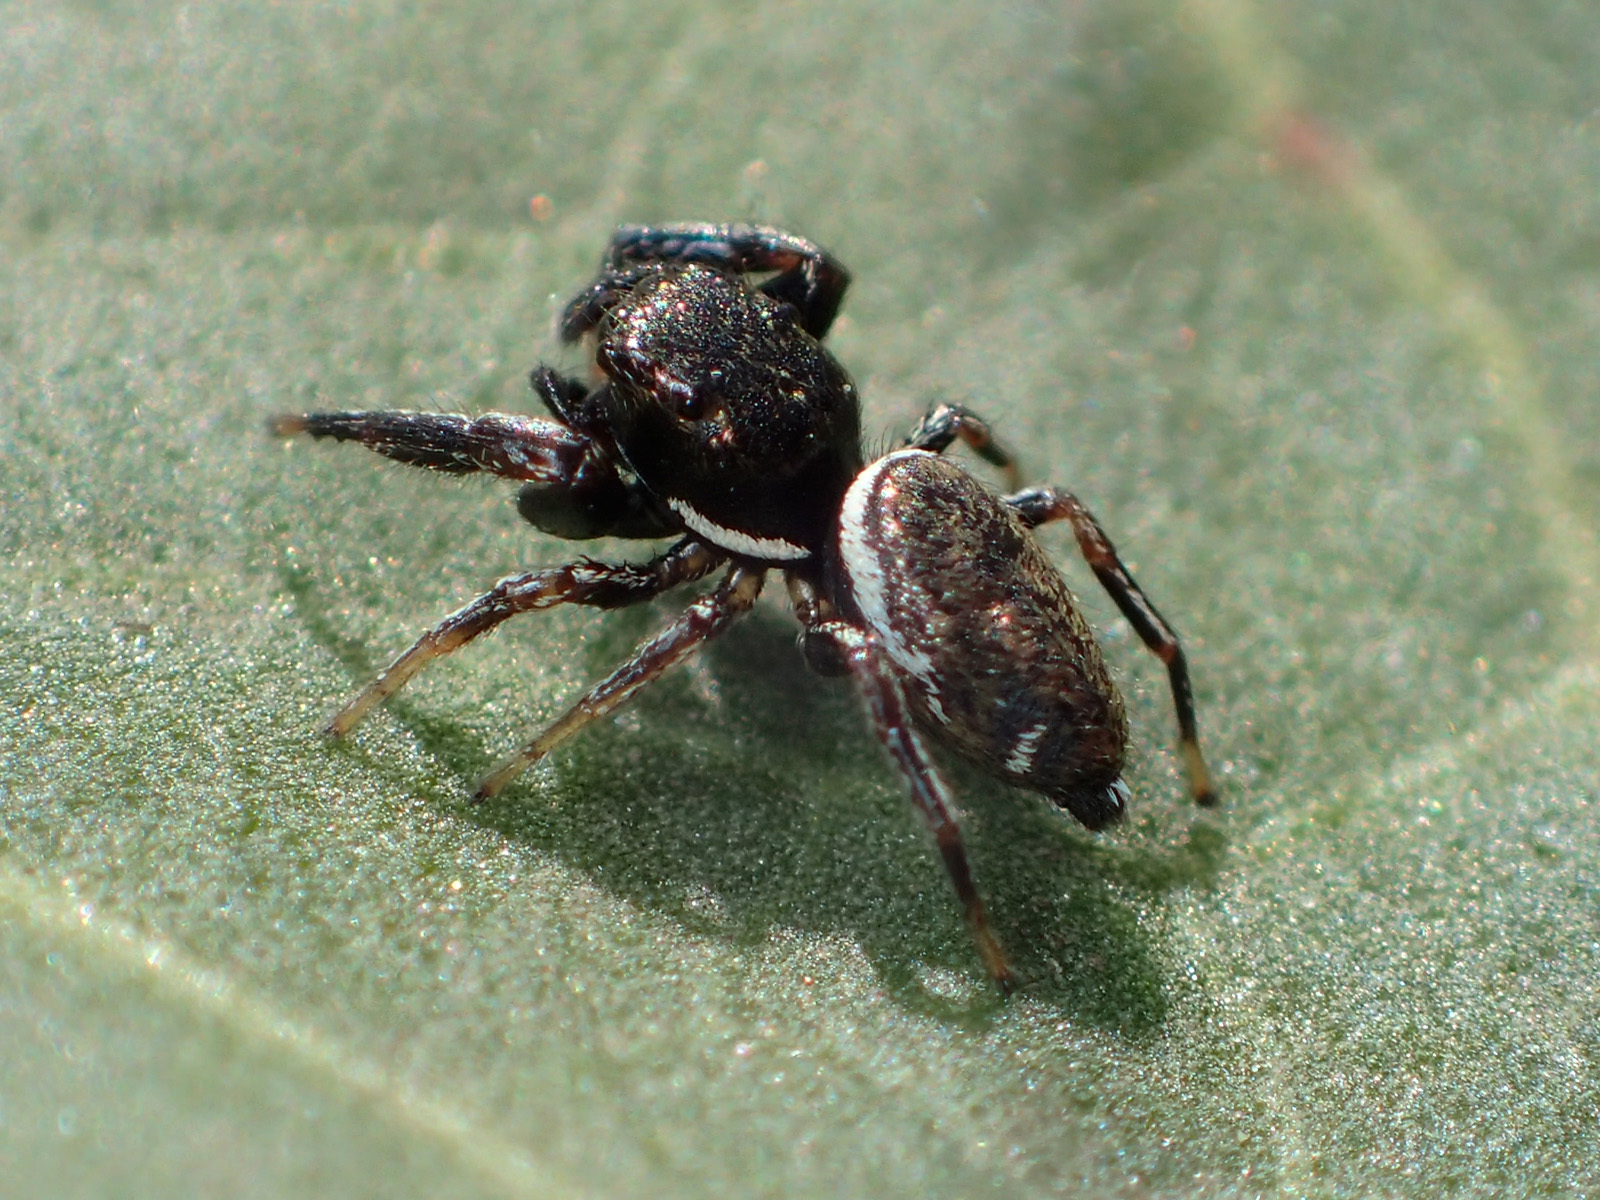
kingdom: Animalia
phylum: Arthropoda
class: Arachnida
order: Araneae
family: Salticidae
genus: Sassacus
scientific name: Sassacus vitis
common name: Jumping spiders
